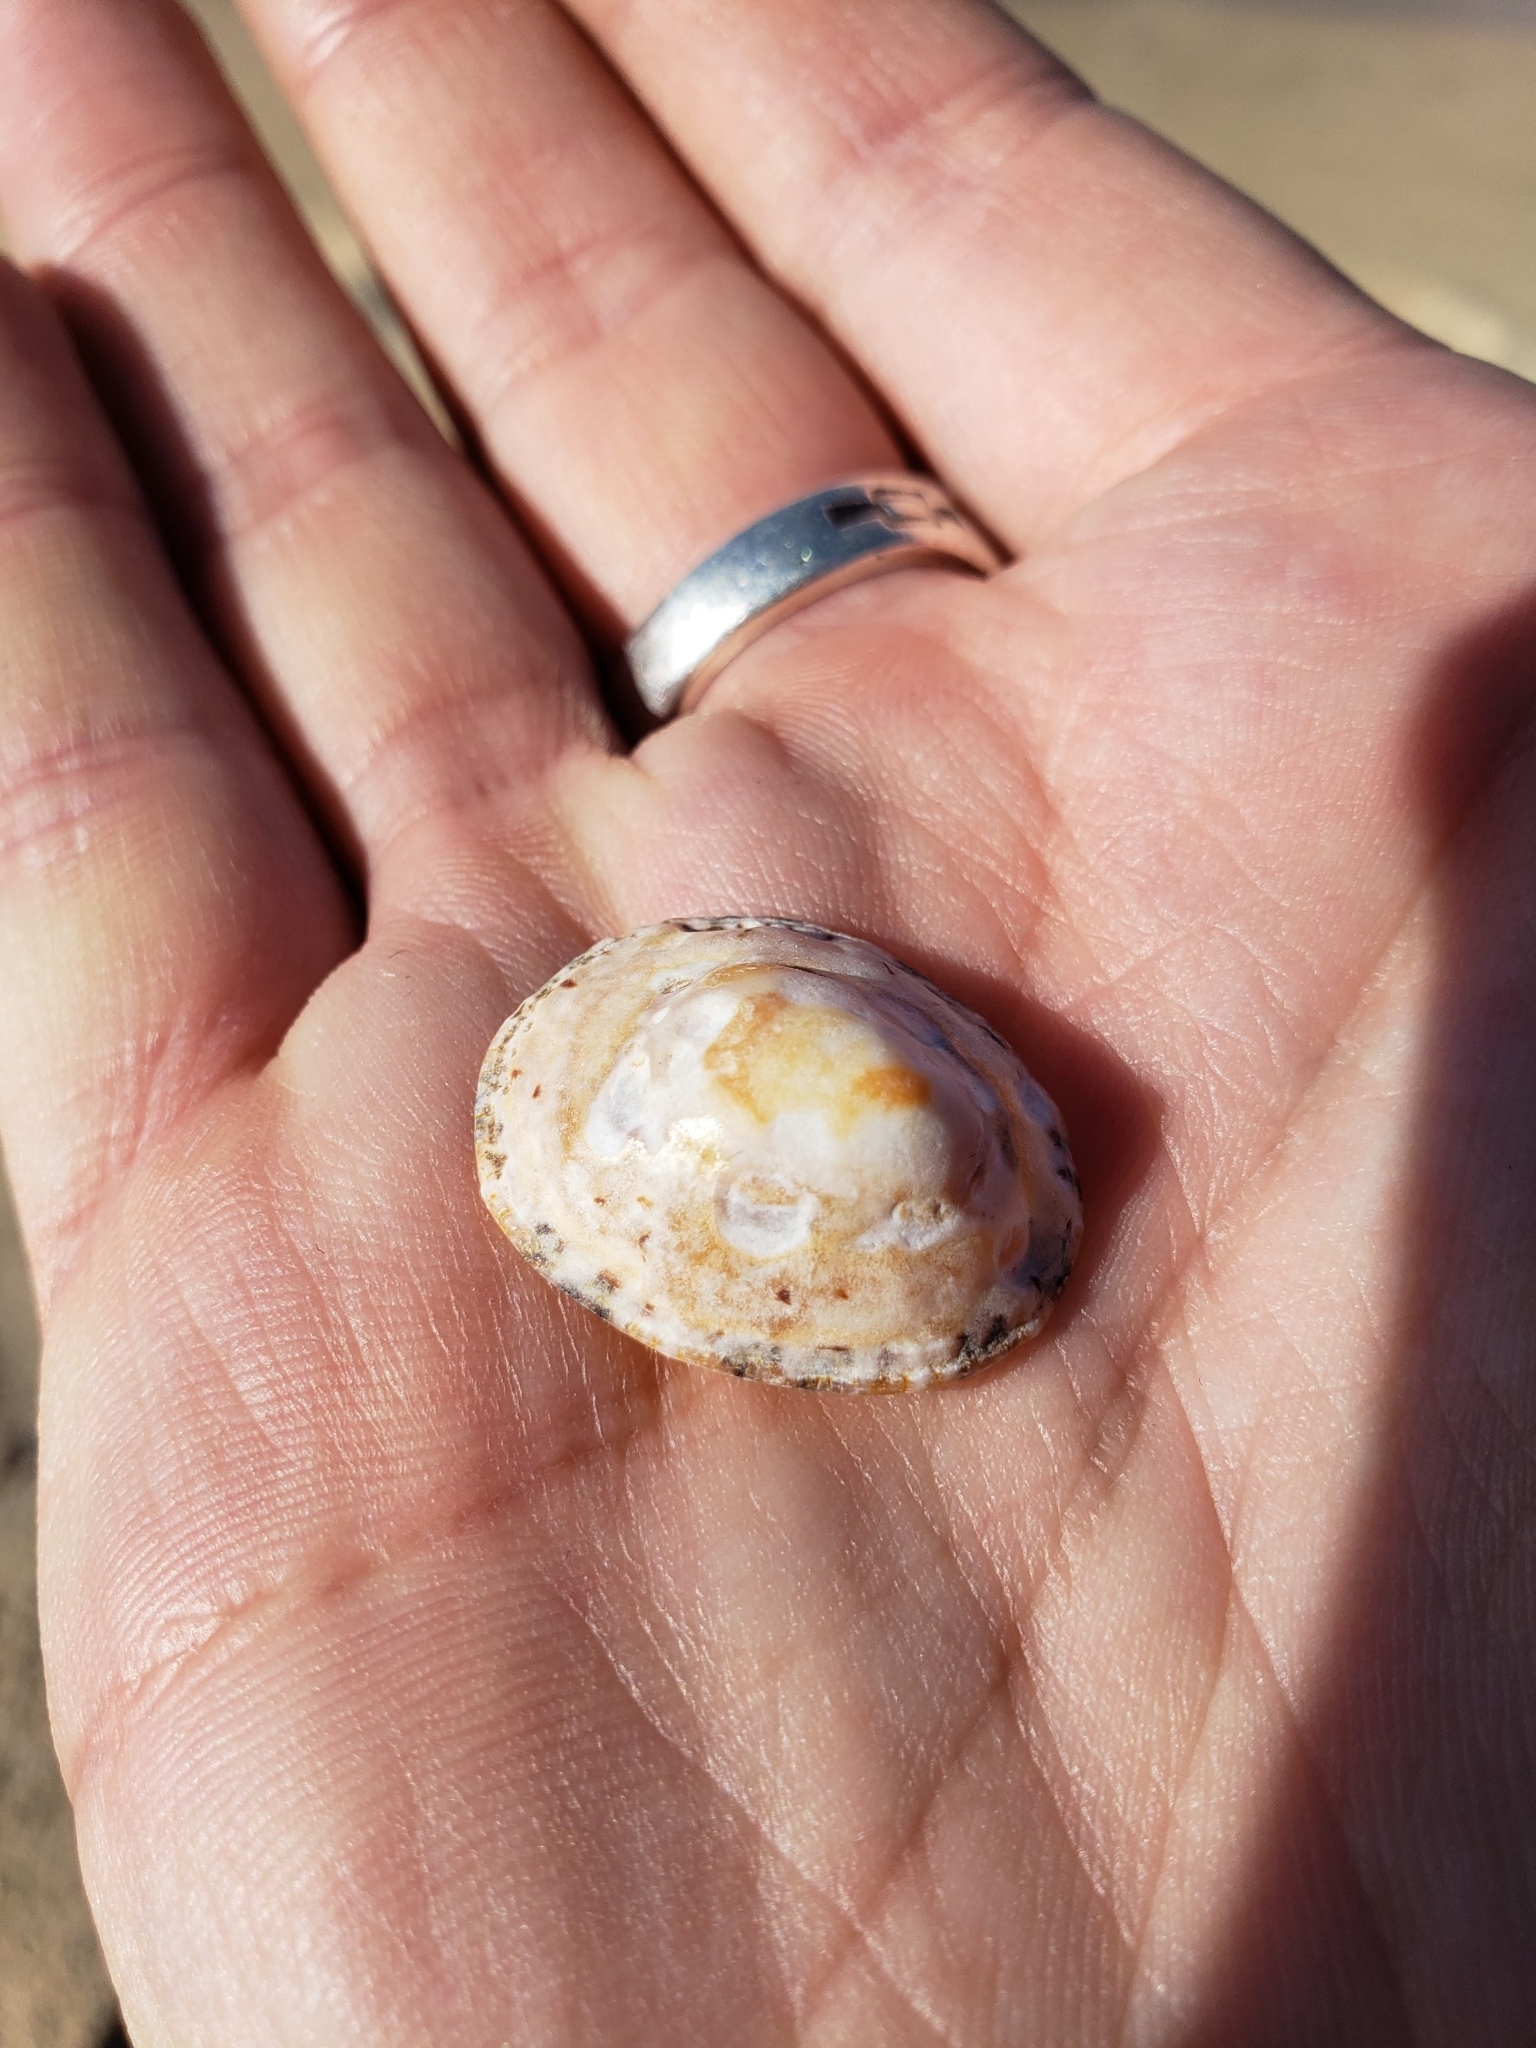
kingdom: Animalia
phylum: Mollusca
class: Gastropoda
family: Patellidae
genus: Patella
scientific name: Patella rustica
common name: Lusitanian limpet
